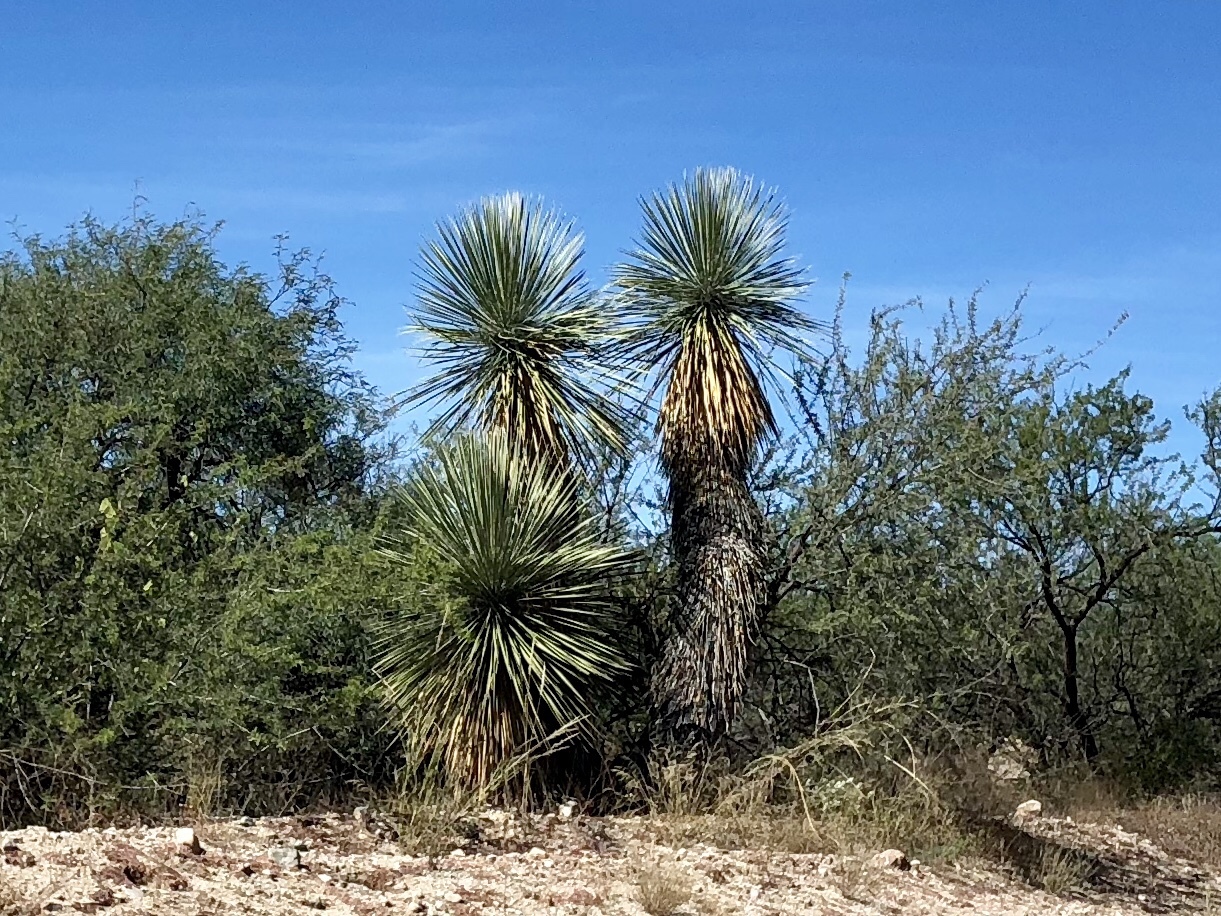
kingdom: Plantae
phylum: Tracheophyta
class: Liliopsida
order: Asparagales
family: Asparagaceae
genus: Yucca
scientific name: Yucca elata
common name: Palmella
